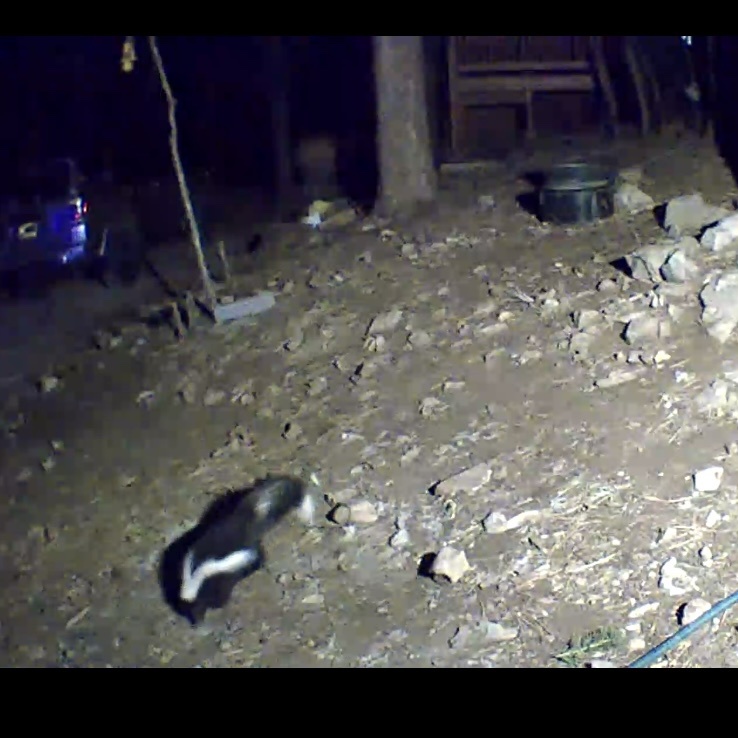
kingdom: Animalia
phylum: Chordata
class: Mammalia
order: Carnivora
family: Mephitidae
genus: Mephitis
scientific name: Mephitis mephitis
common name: Striped skunk
